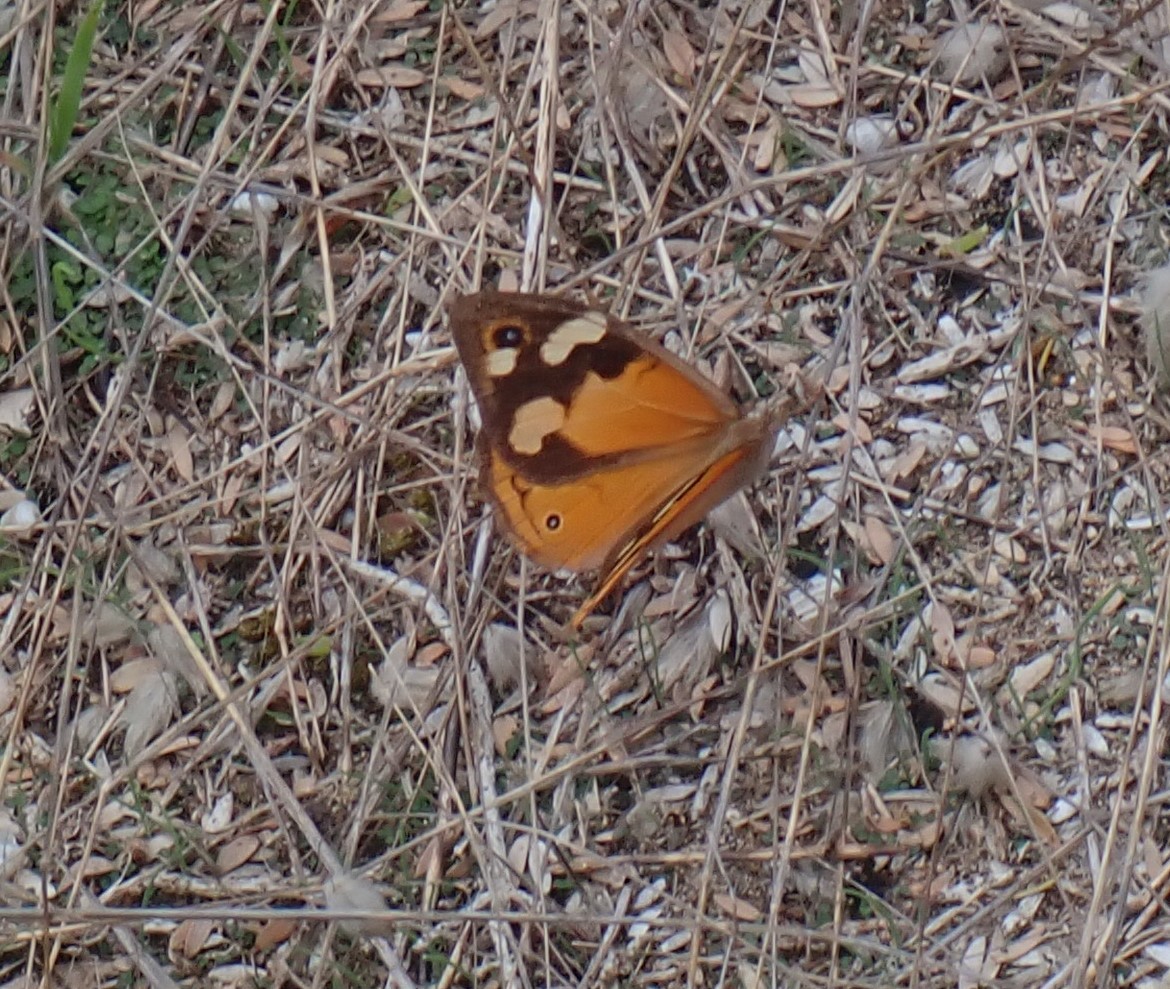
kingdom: Animalia
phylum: Arthropoda
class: Insecta
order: Lepidoptera
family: Nymphalidae
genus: Heteronympha
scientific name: Heteronympha merope
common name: Common brown
